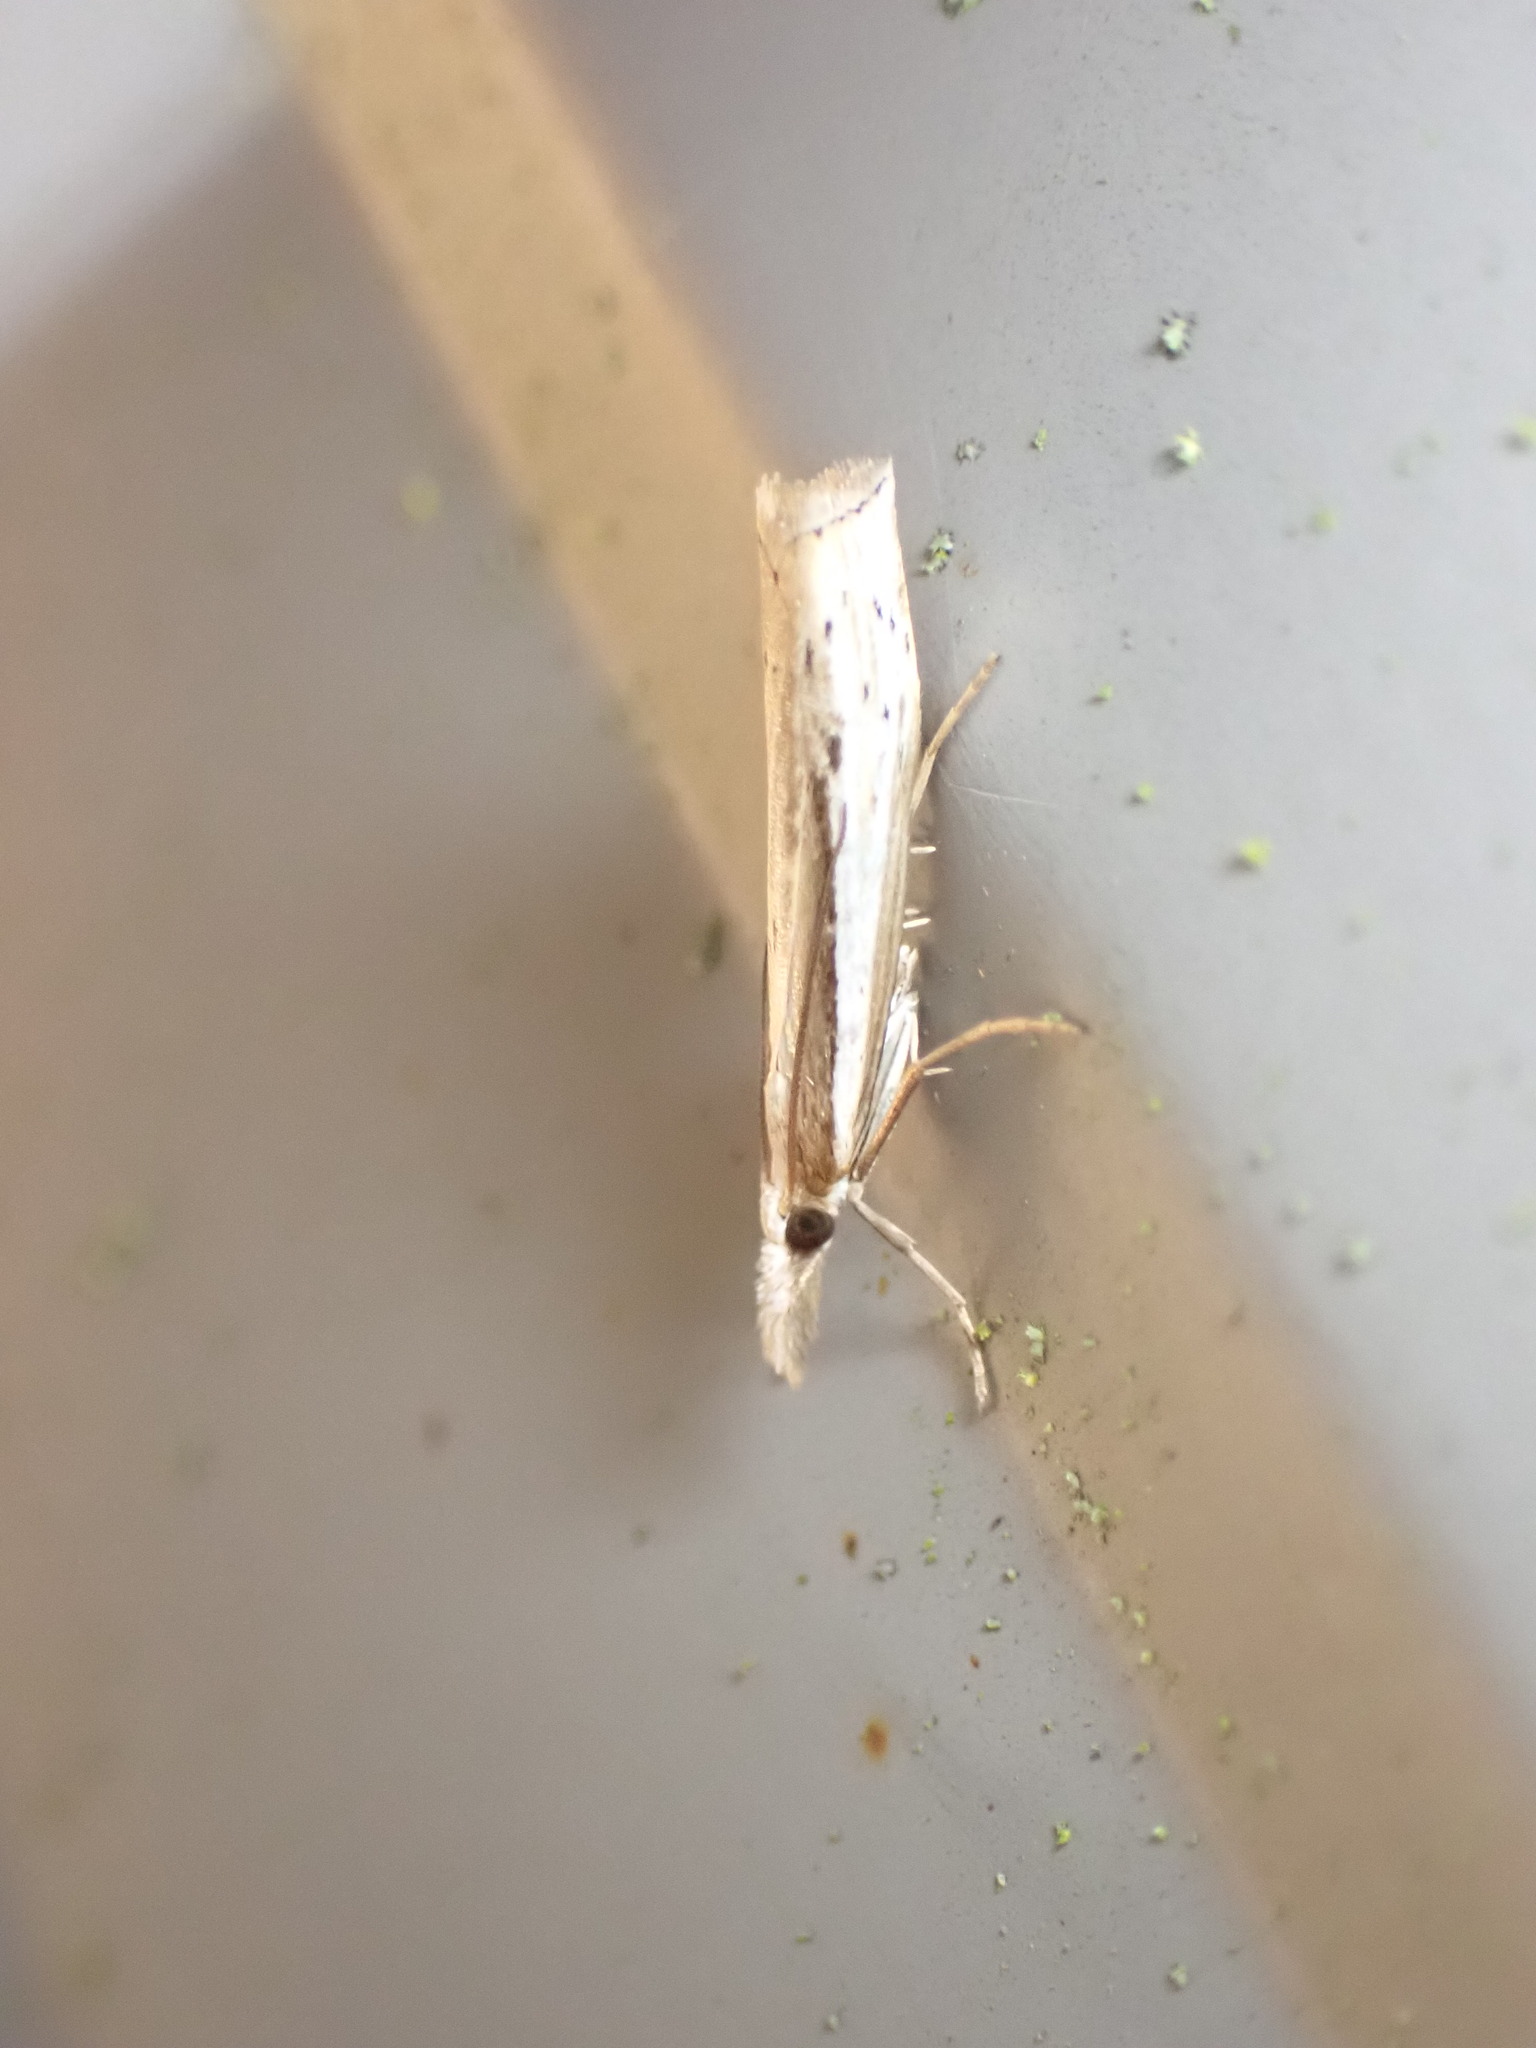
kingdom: Animalia
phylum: Arthropoda
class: Insecta
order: Lepidoptera
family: Crambidae
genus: Orocrambus
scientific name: Orocrambus ramosellus
